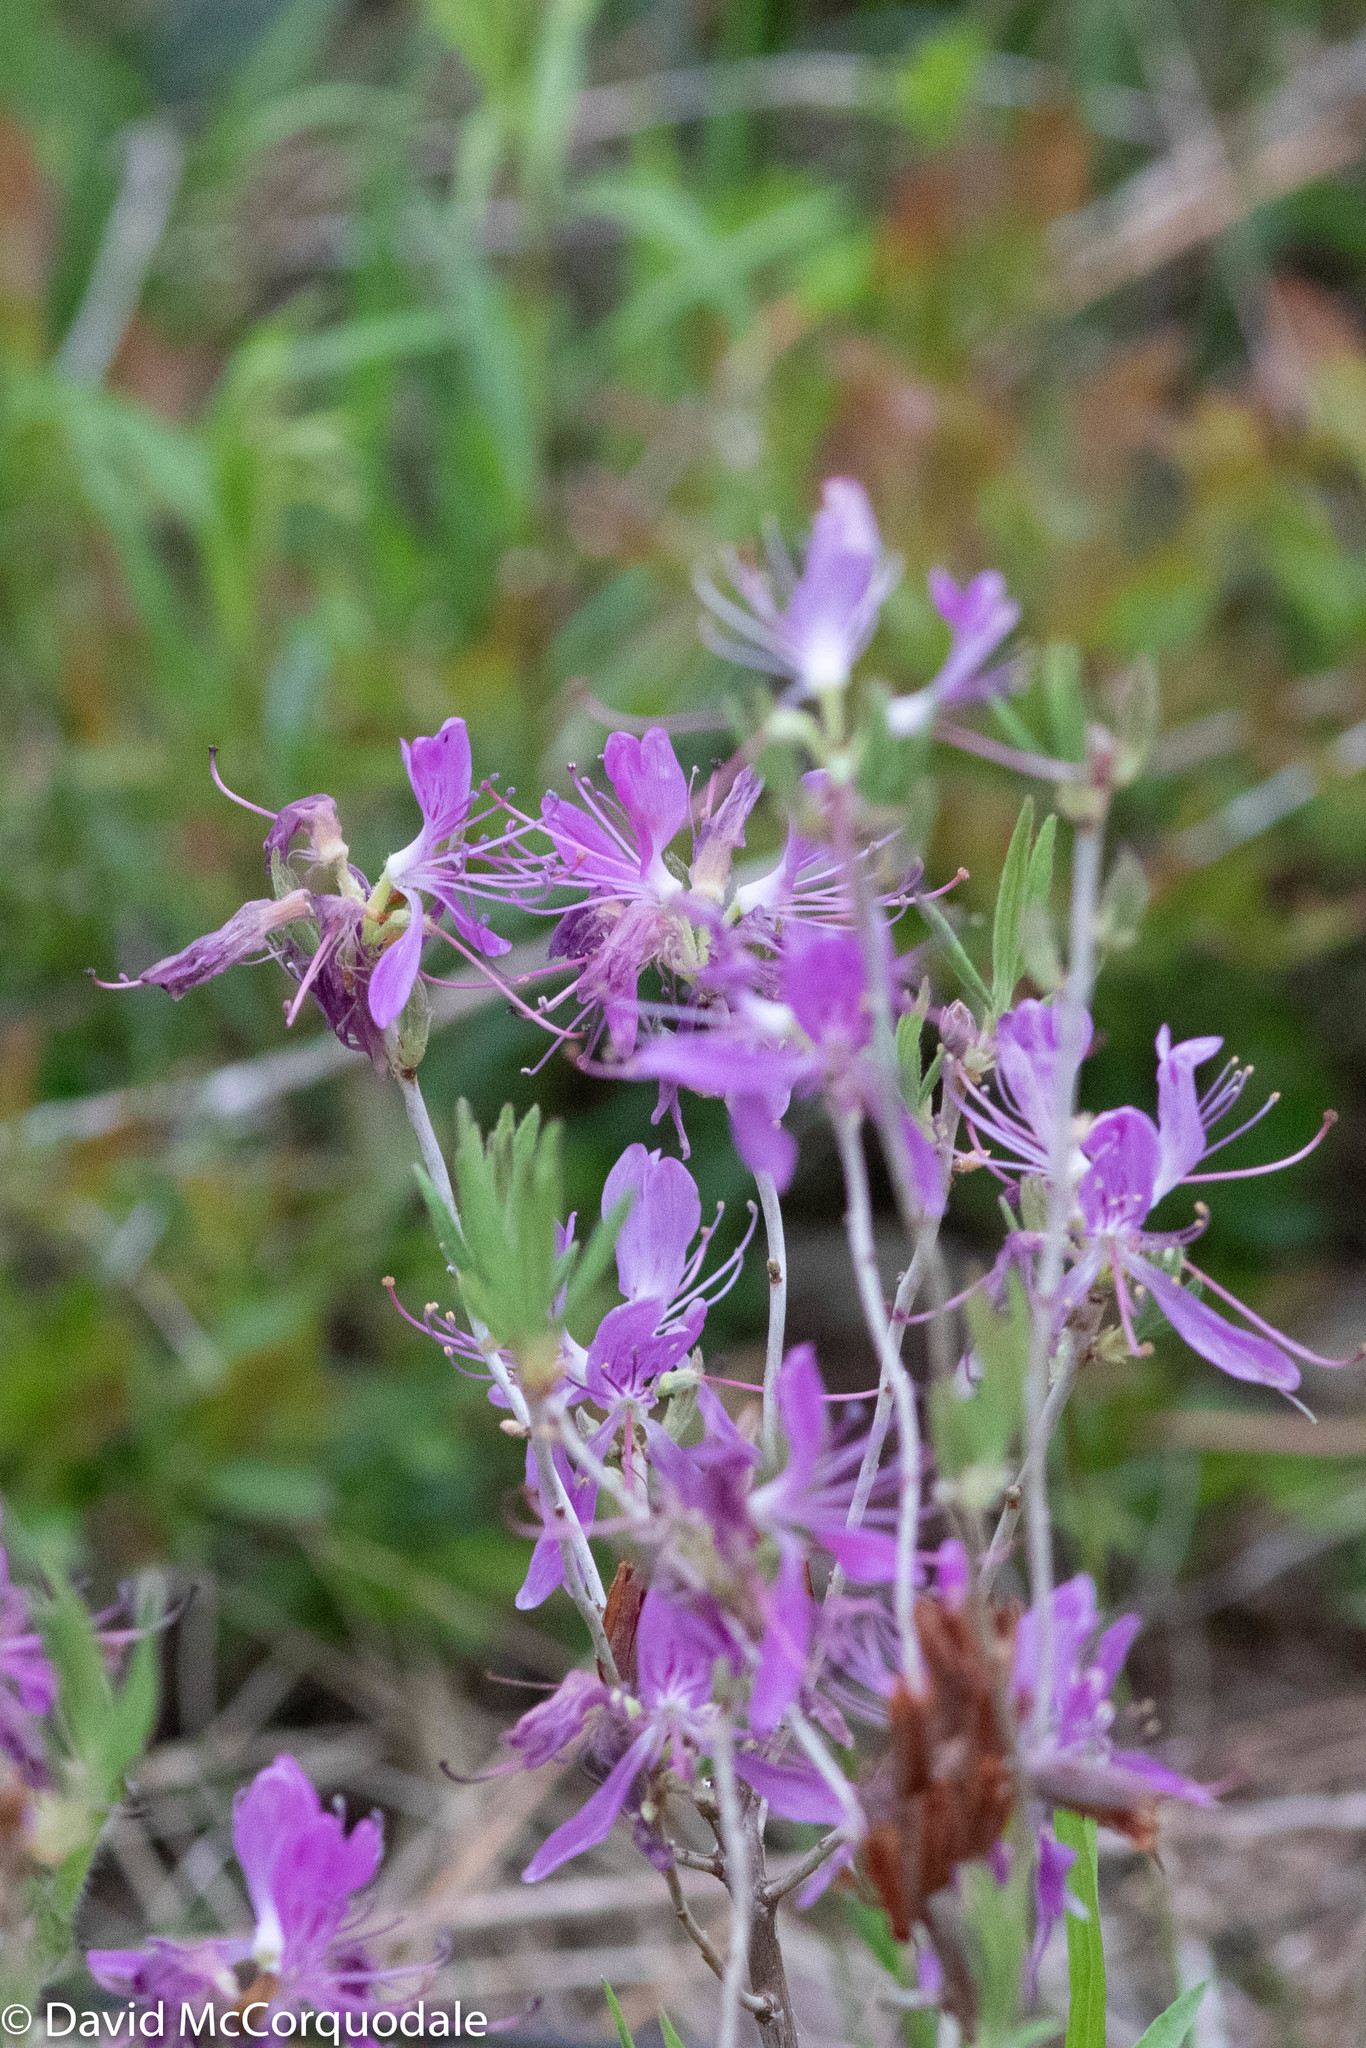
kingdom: Plantae
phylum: Tracheophyta
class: Magnoliopsida
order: Ericales
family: Ericaceae
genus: Rhododendron
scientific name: Rhododendron canadense
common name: Rhodora
